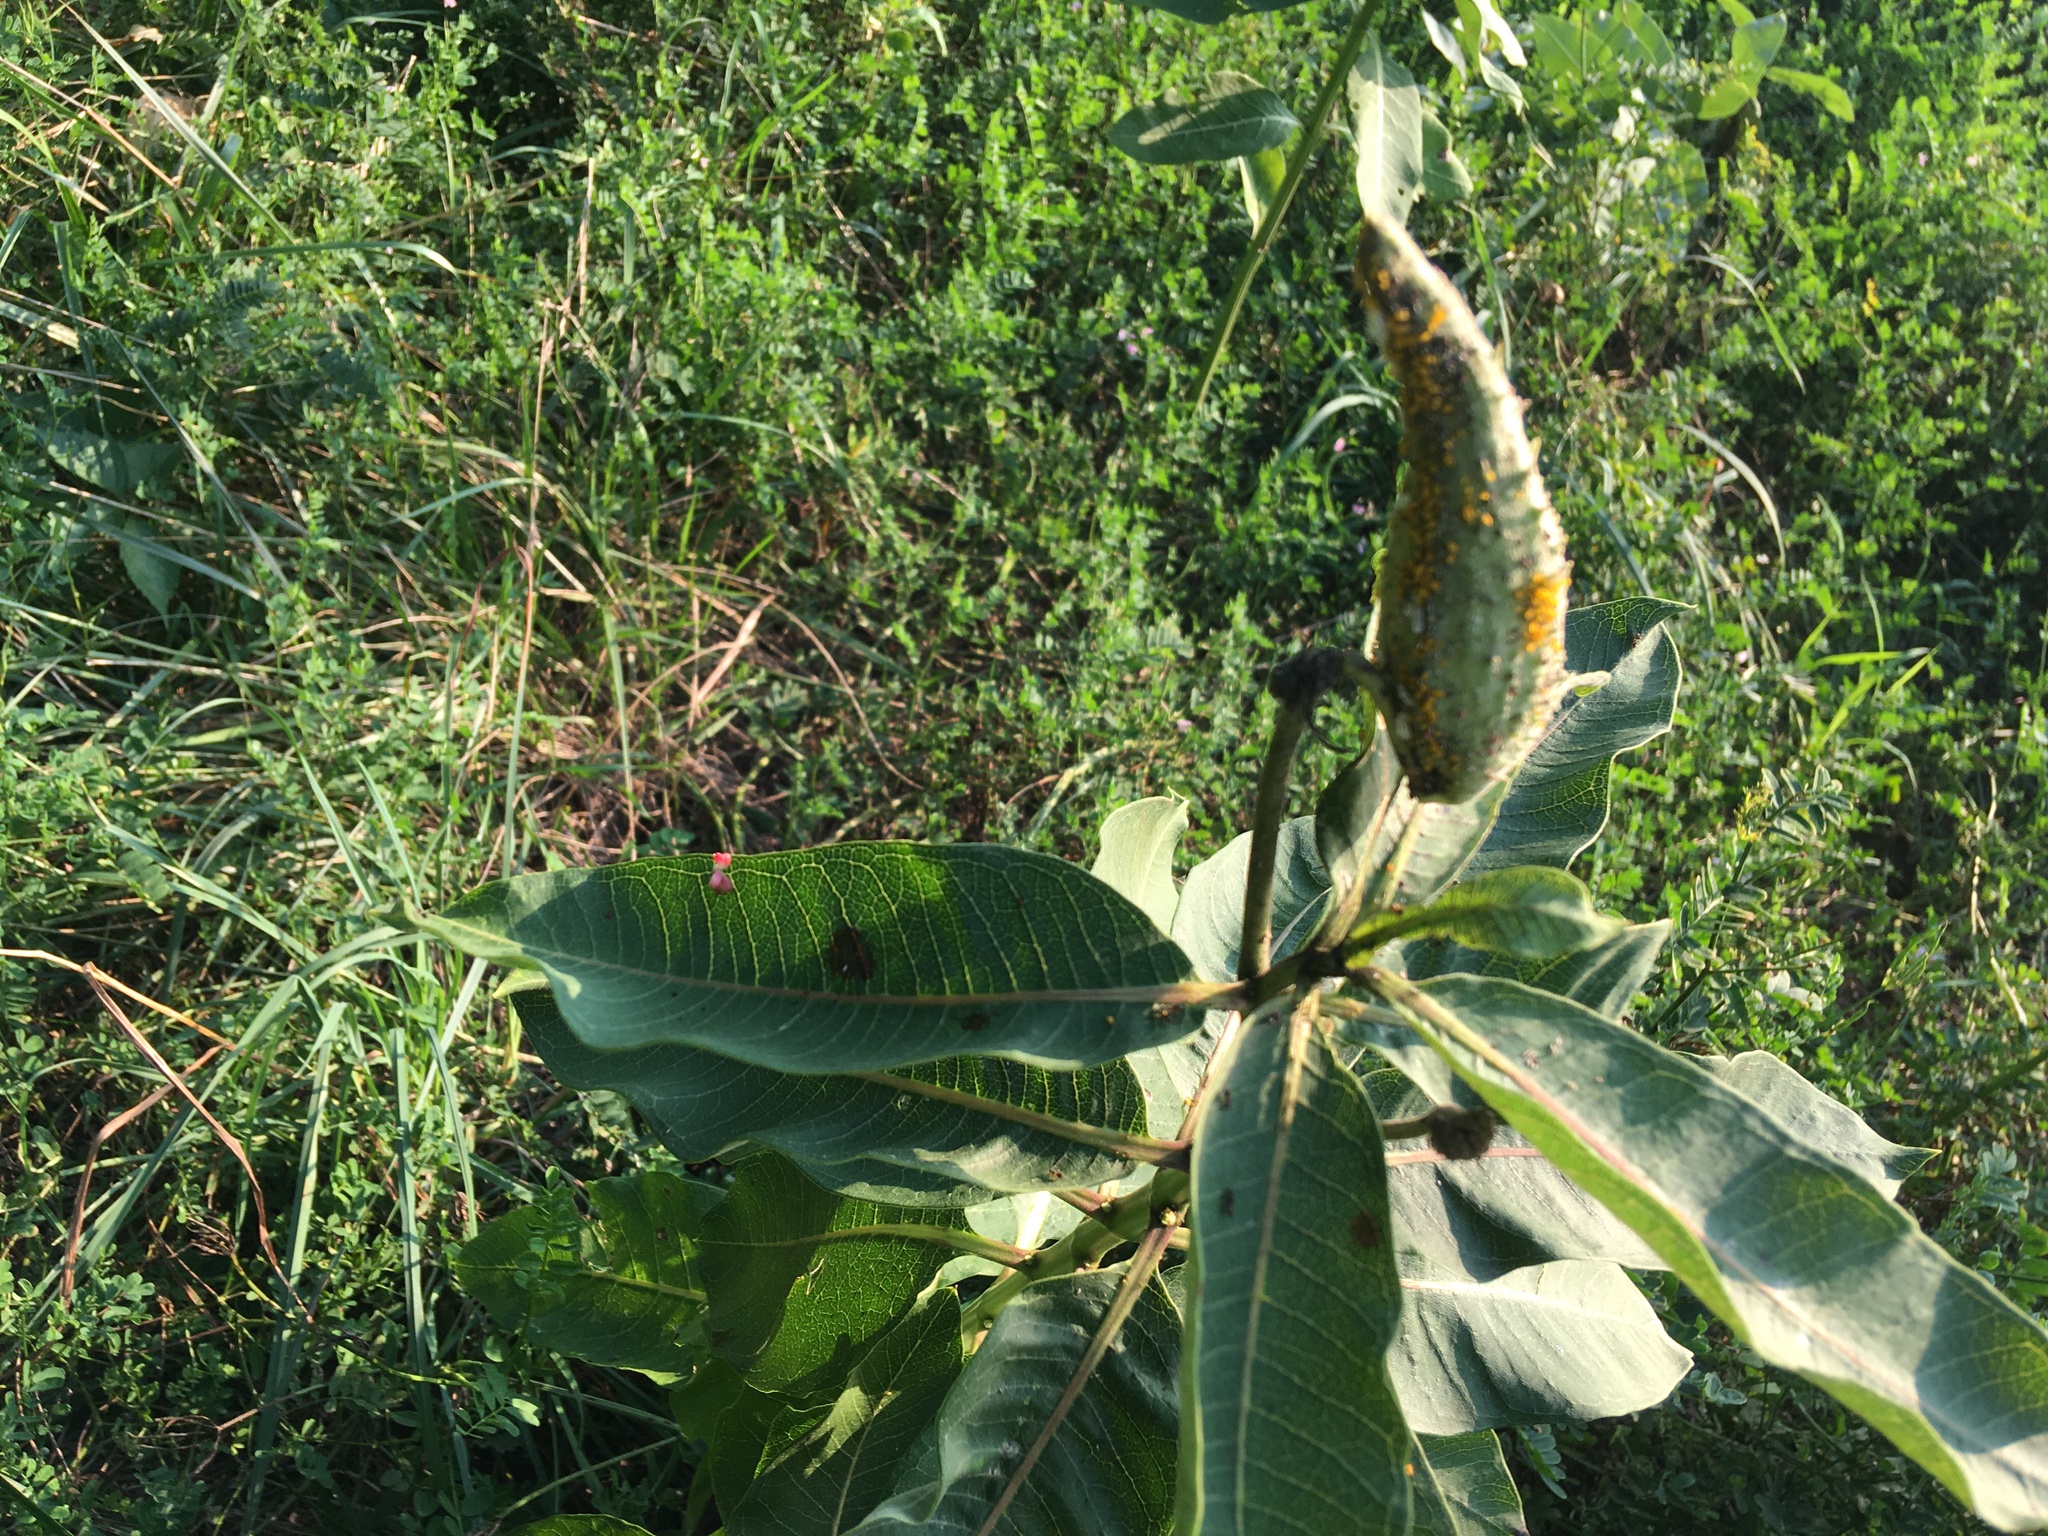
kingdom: Plantae
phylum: Tracheophyta
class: Magnoliopsida
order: Gentianales
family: Apocynaceae
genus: Asclepias
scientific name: Asclepias syriaca
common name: Common milkweed
